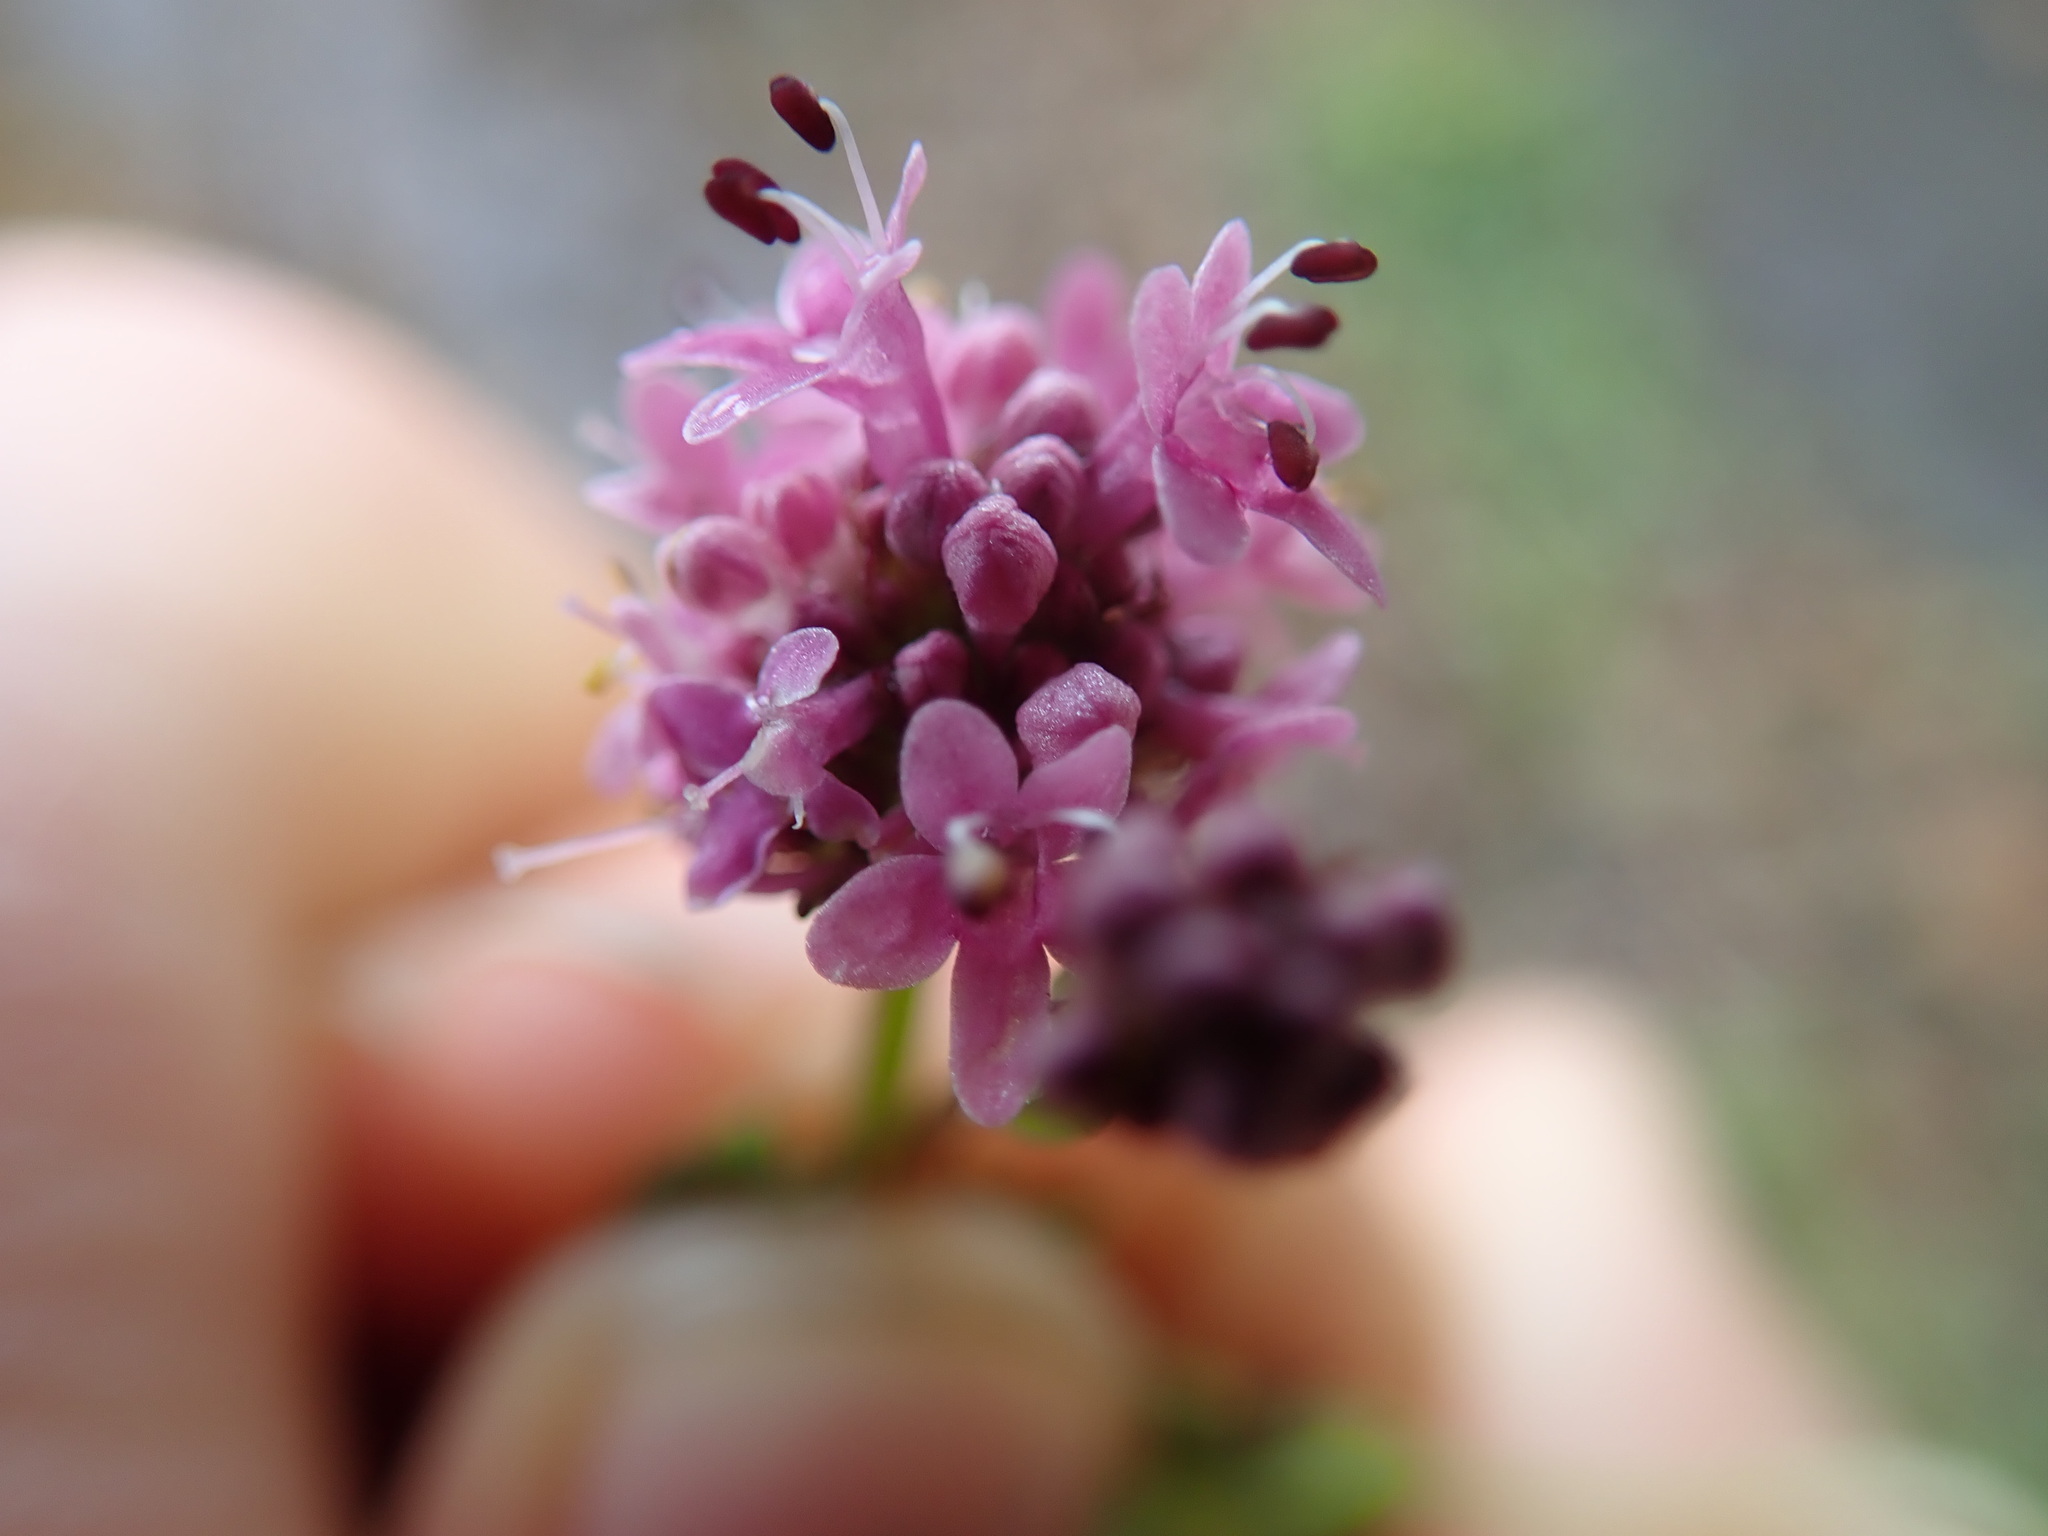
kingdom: Plantae
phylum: Tracheophyta
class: Magnoliopsida
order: Dipsacales
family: Caprifoliaceae
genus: Plectritis
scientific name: Plectritis congesta
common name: Pink plectritis
